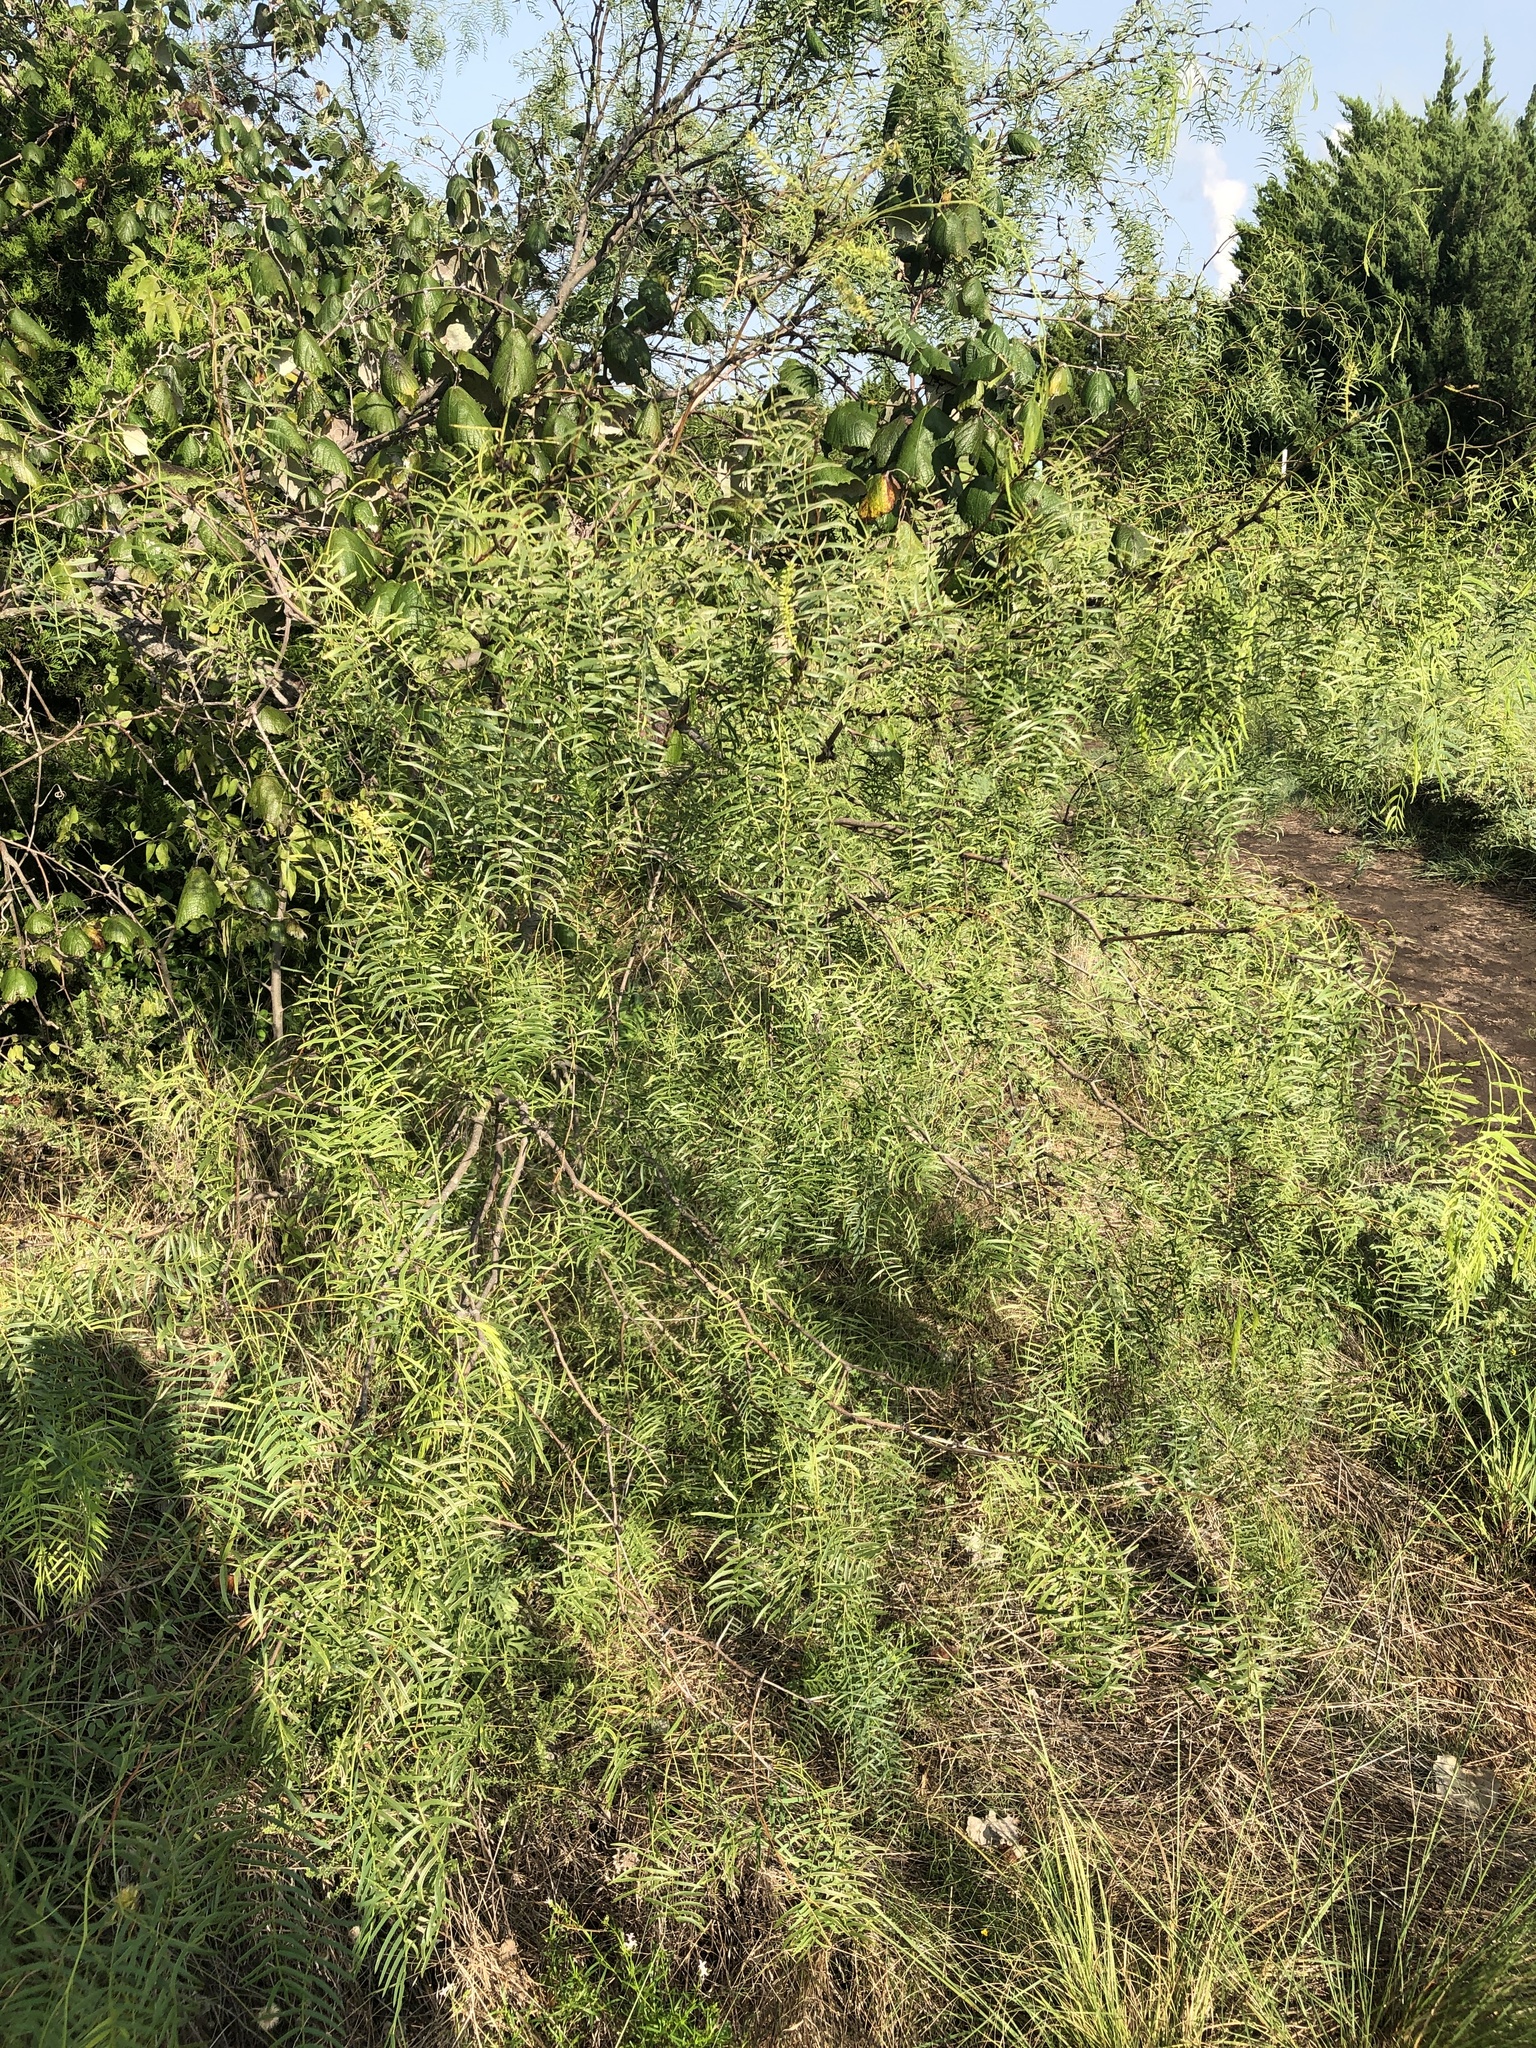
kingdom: Plantae
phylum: Tracheophyta
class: Magnoliopsida
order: Fabales
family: Fabaceae
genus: Prosopis
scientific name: Prosopis glandulosa
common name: Honey mesquite
